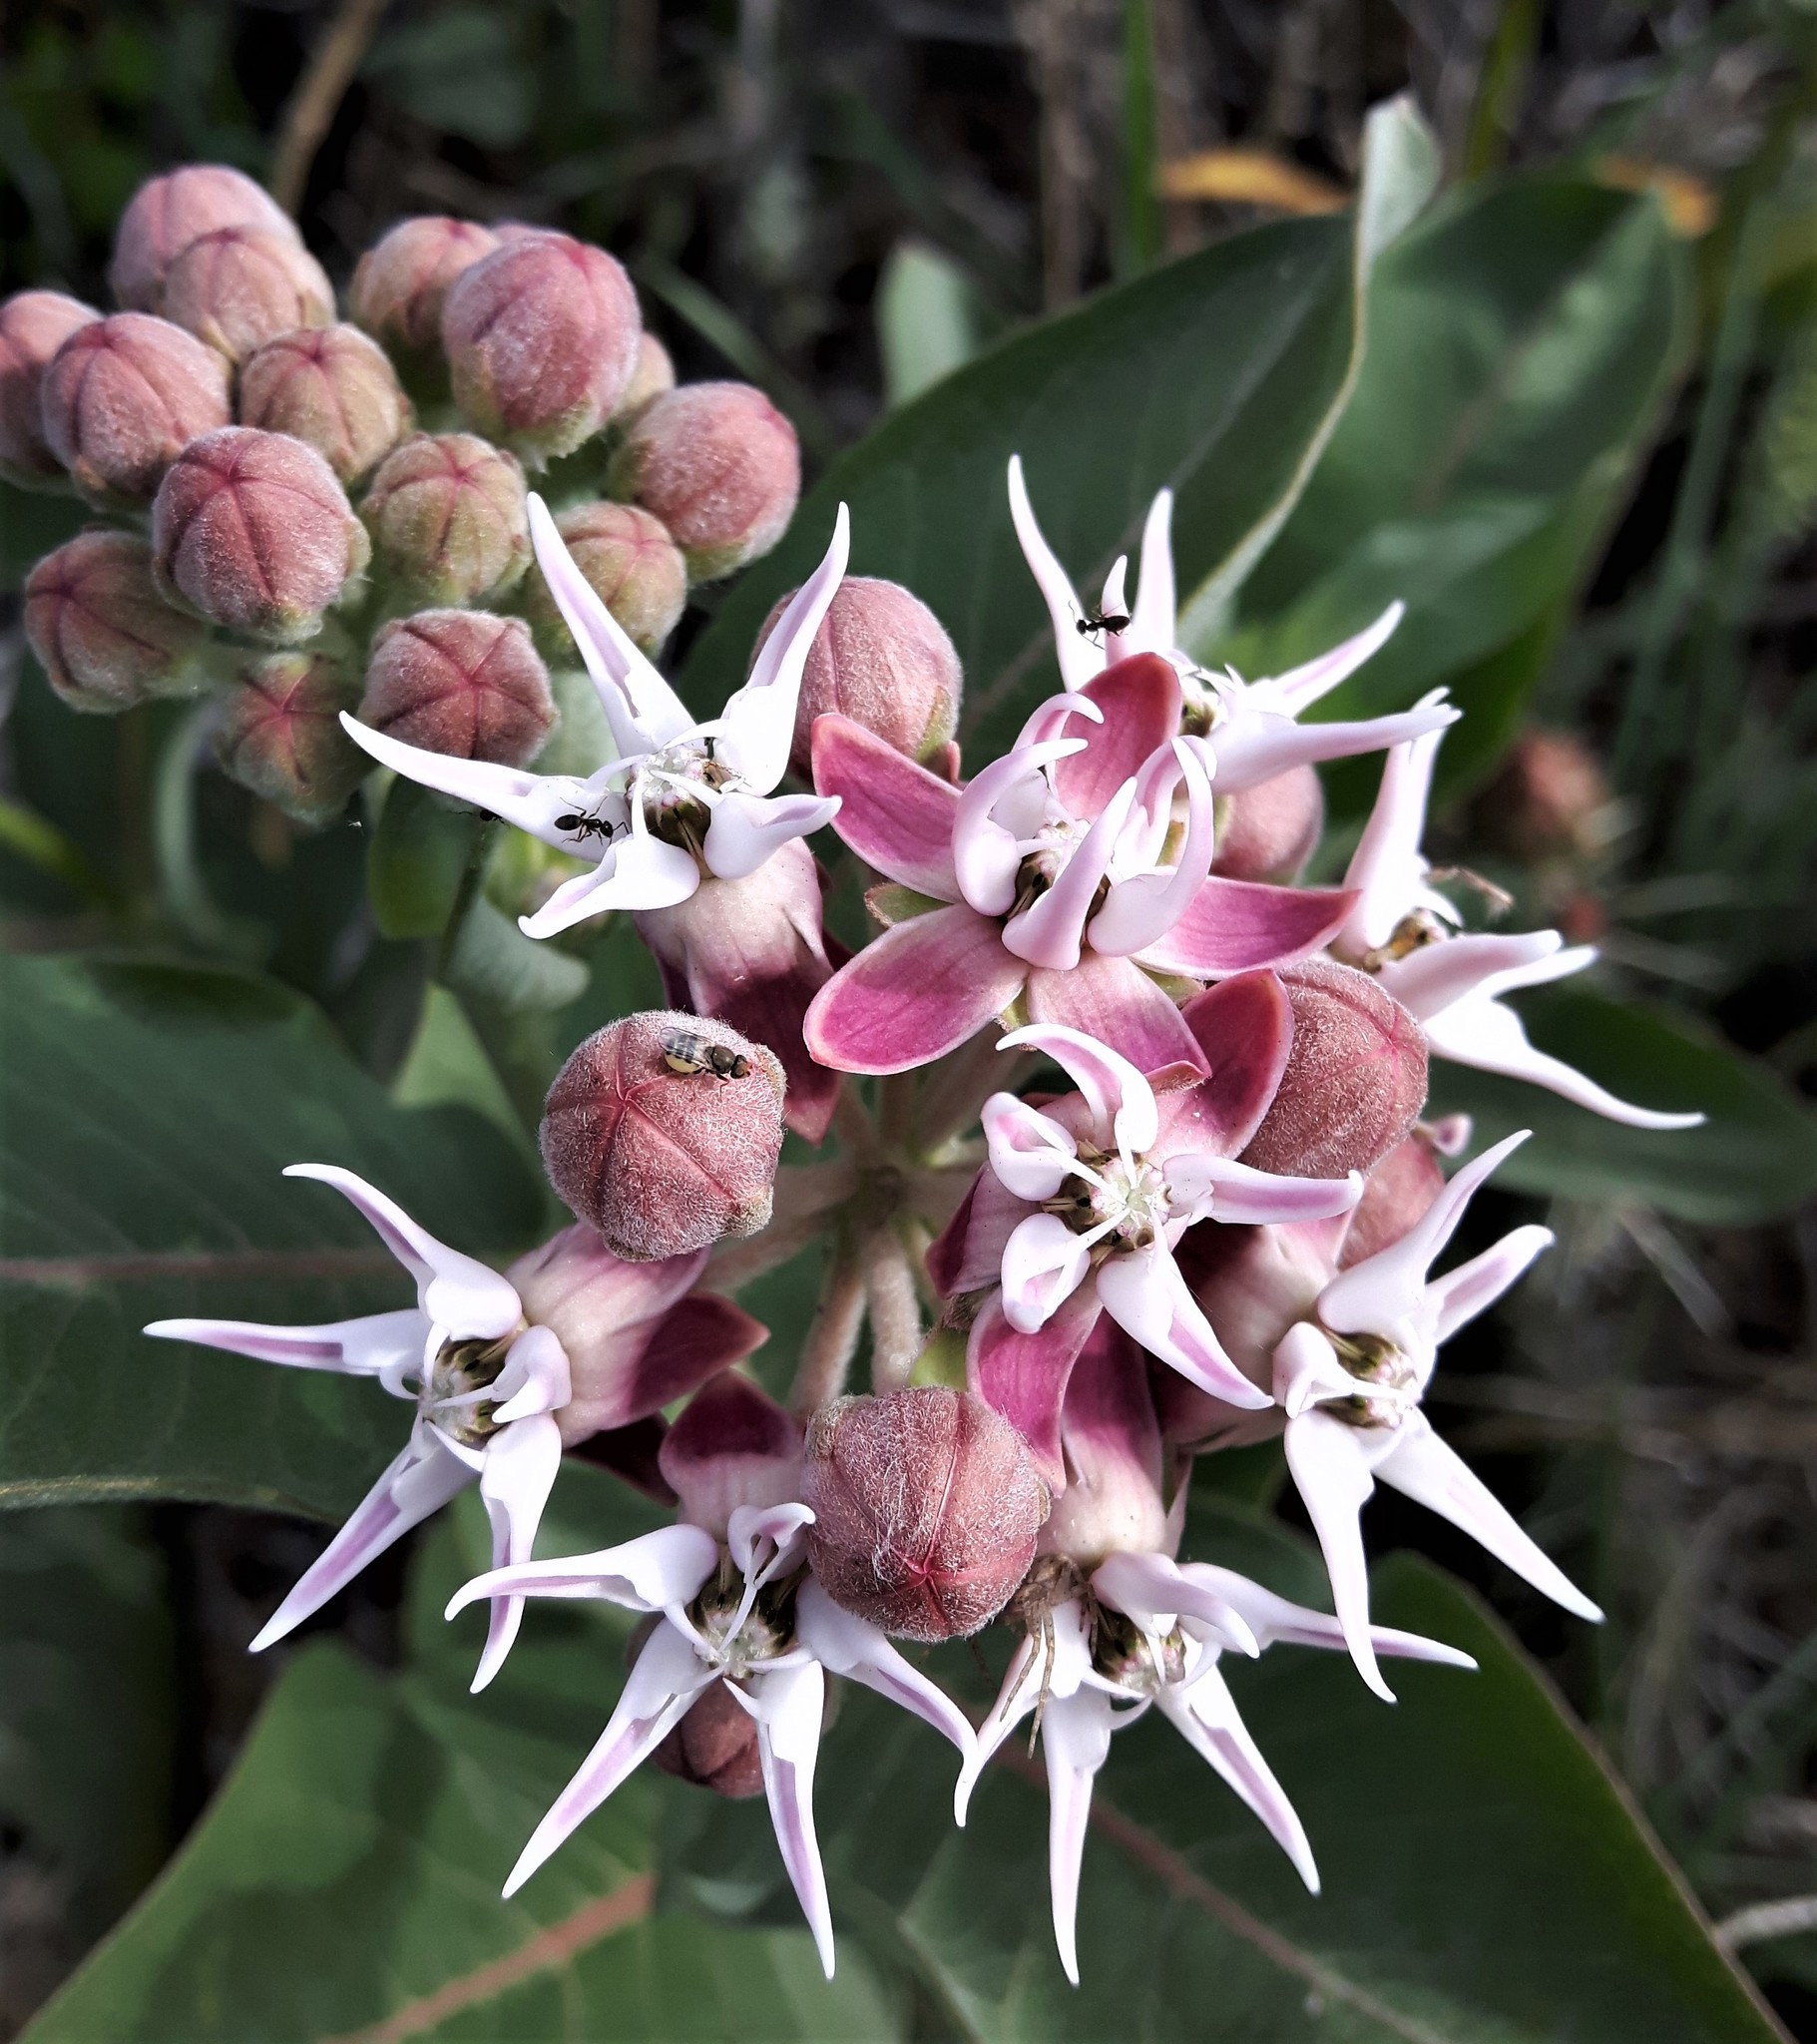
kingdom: Plantae
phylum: Tracheophyta
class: Magnoliopsida
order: Gentianales
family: Apocynaceae
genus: Asclepias
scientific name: Asclepias speciosa
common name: Showy milkweed
